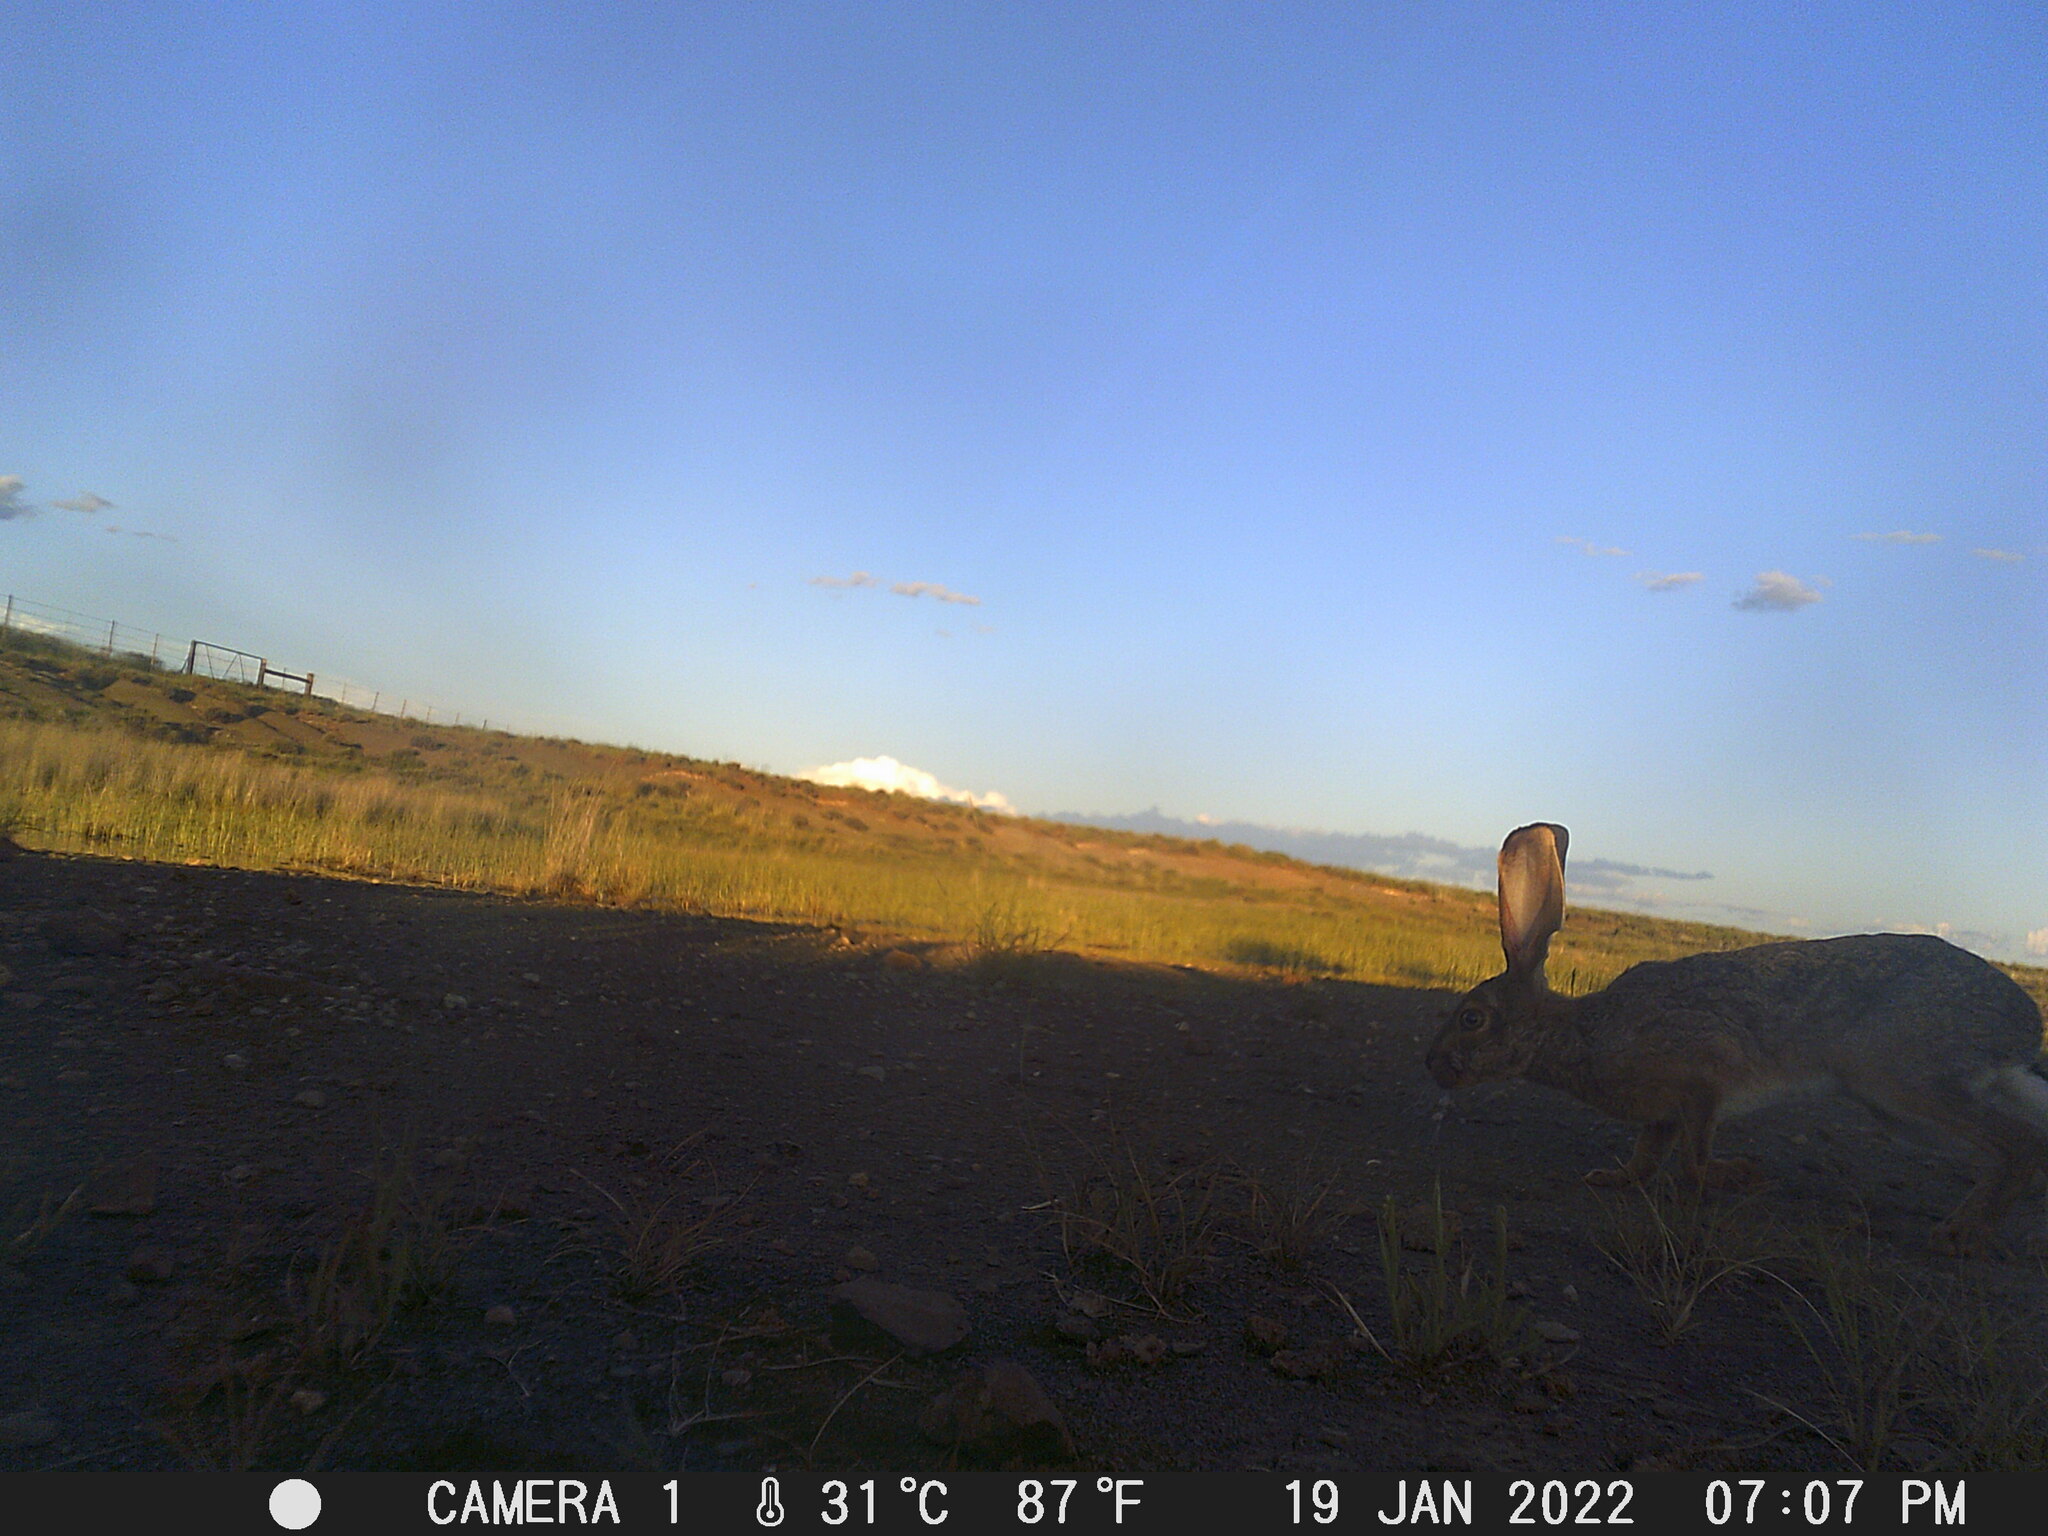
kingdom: Animalia
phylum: Chordata
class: Mammalia
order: Lagomorpha
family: Leporidae
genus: Lepus
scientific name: Lepus capensis
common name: Cape hare
